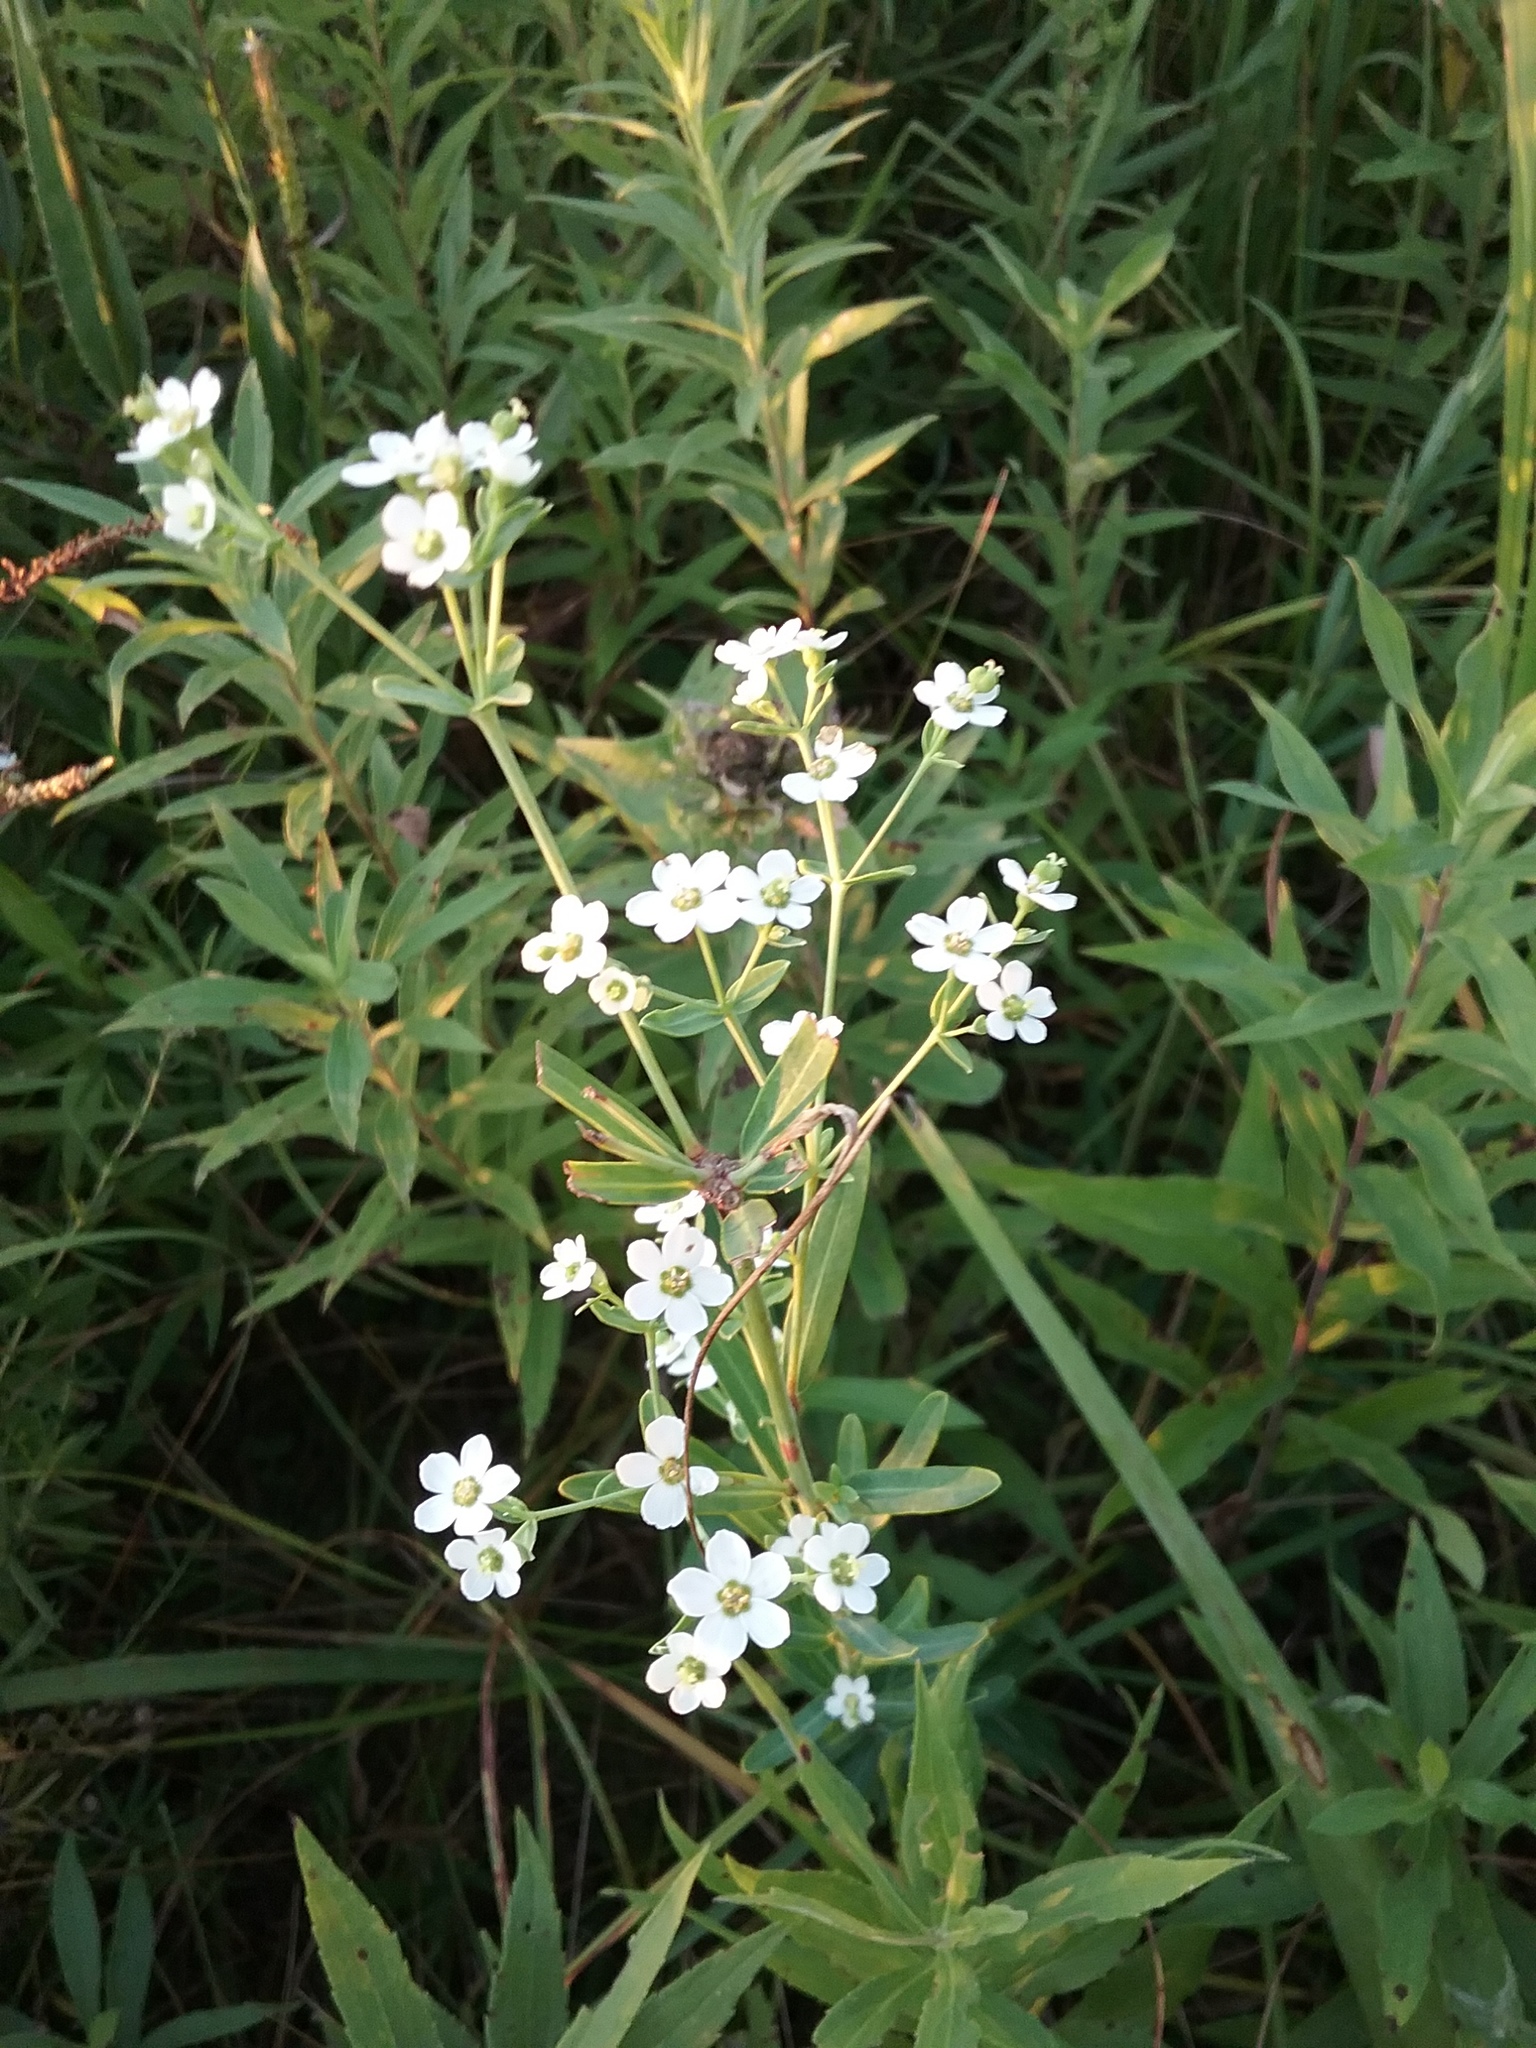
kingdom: Plantae
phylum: Tracheophyta
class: Magnoliopsida
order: Malpighiales
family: Euphorbiaceae
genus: Euphorbia
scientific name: Euphorbia corollata
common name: Flowering spurge
